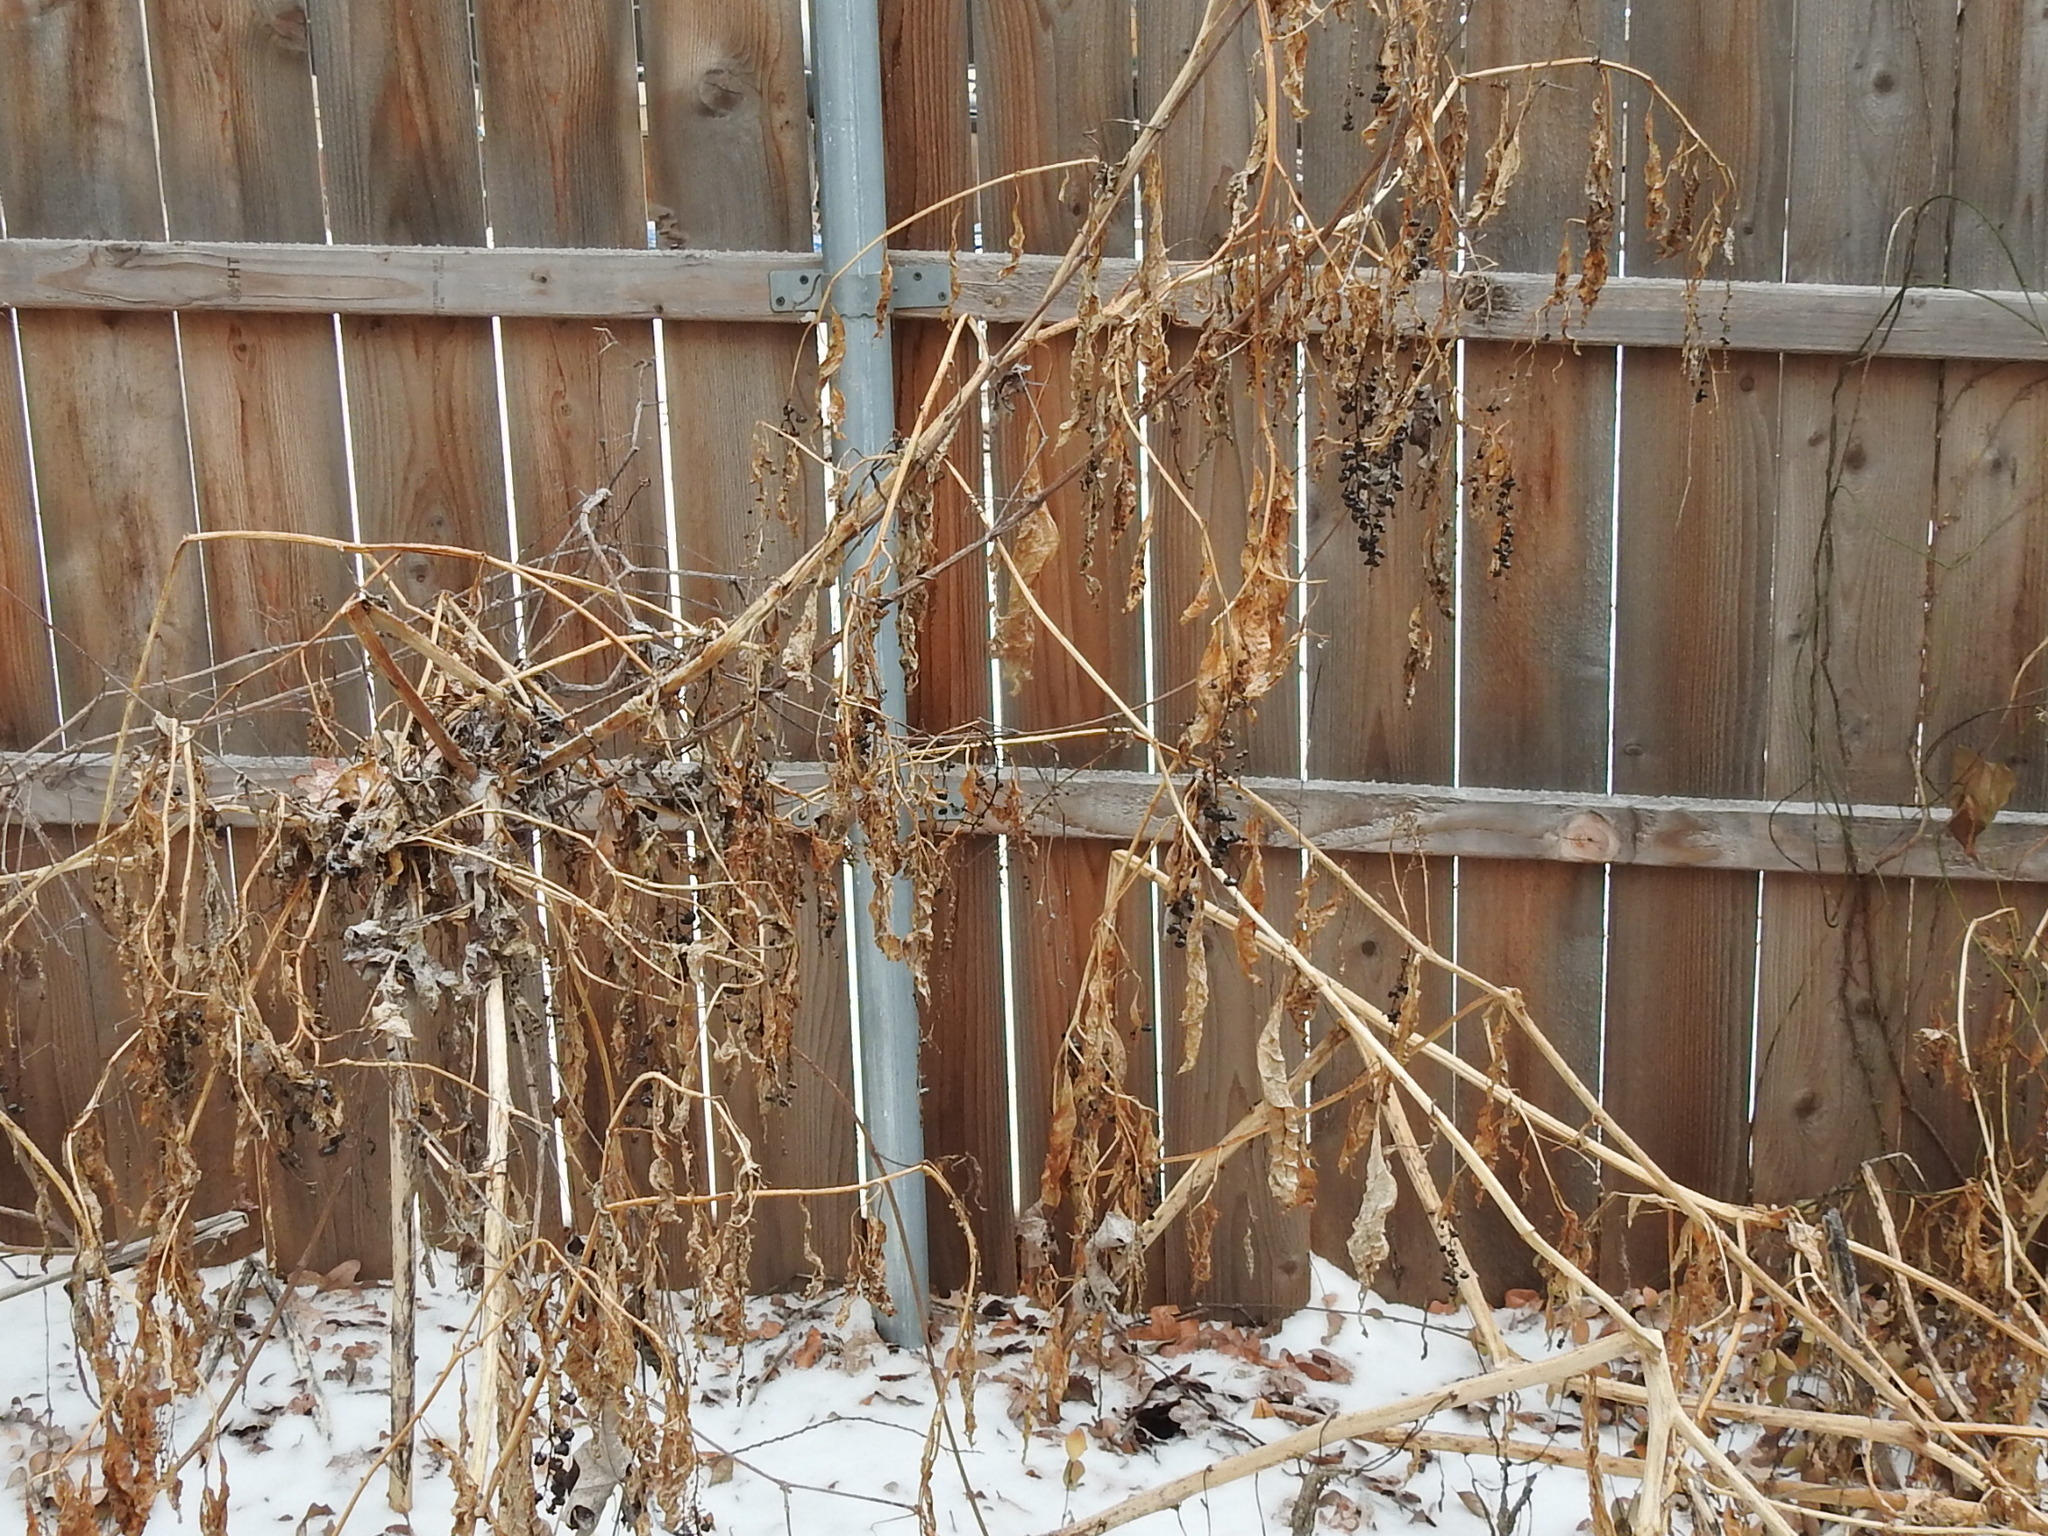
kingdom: Plantae
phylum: Tracheophyta
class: Magnoliopsida
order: Caryophyllales
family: Phytolaccaceae
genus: Phytolacca
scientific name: Phytolacca americana
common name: American pokeweed
